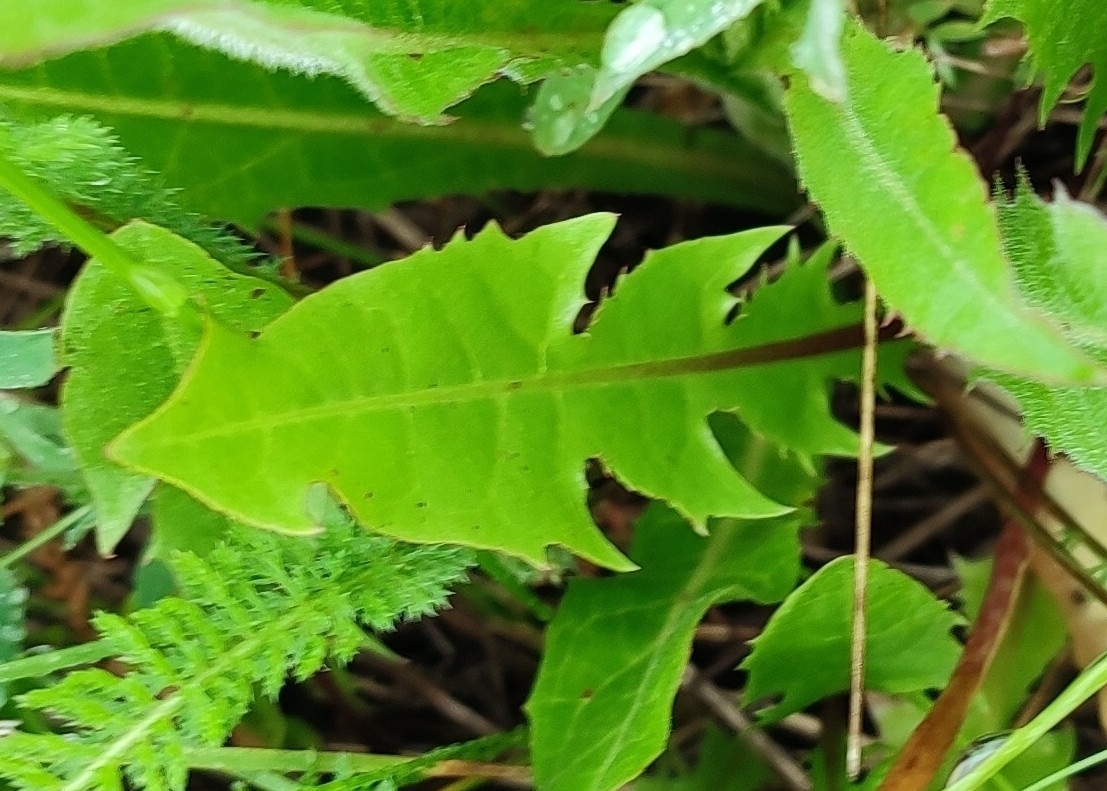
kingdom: Plantae
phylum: Tracheophyta
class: Magnoliopsida
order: Asterales
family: Asteraceae
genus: Taraxacum
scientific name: Taraxacum officinale
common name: Common dandelion
